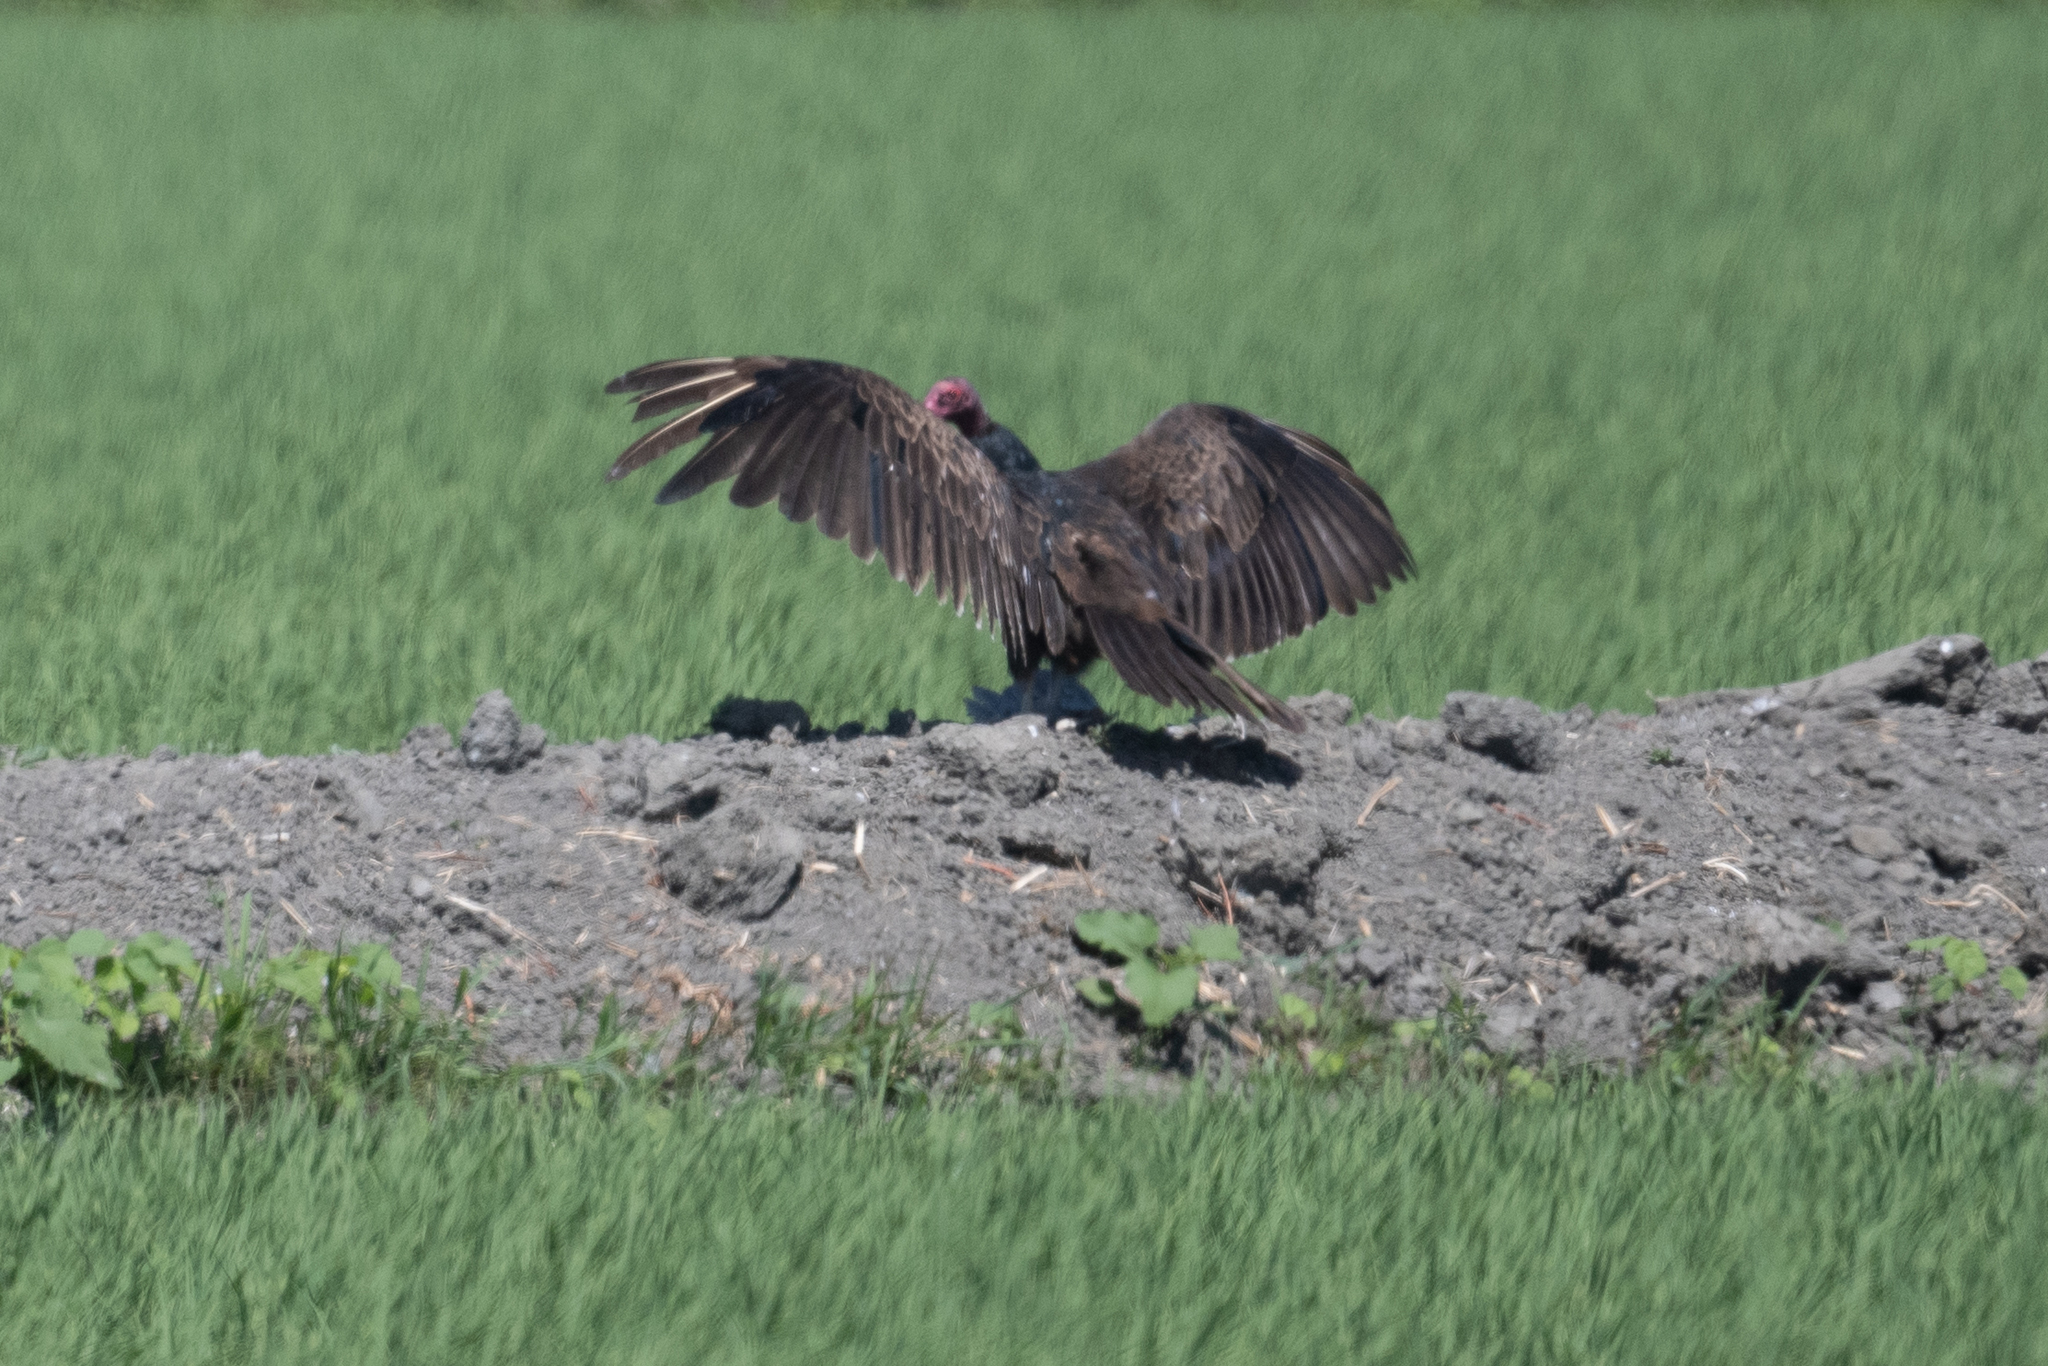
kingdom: Animalia
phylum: Chordata
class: Aves
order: Accipitriformes
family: Cathartidae
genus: Cathartes
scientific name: Cathartes aura
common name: Turkey vulture
